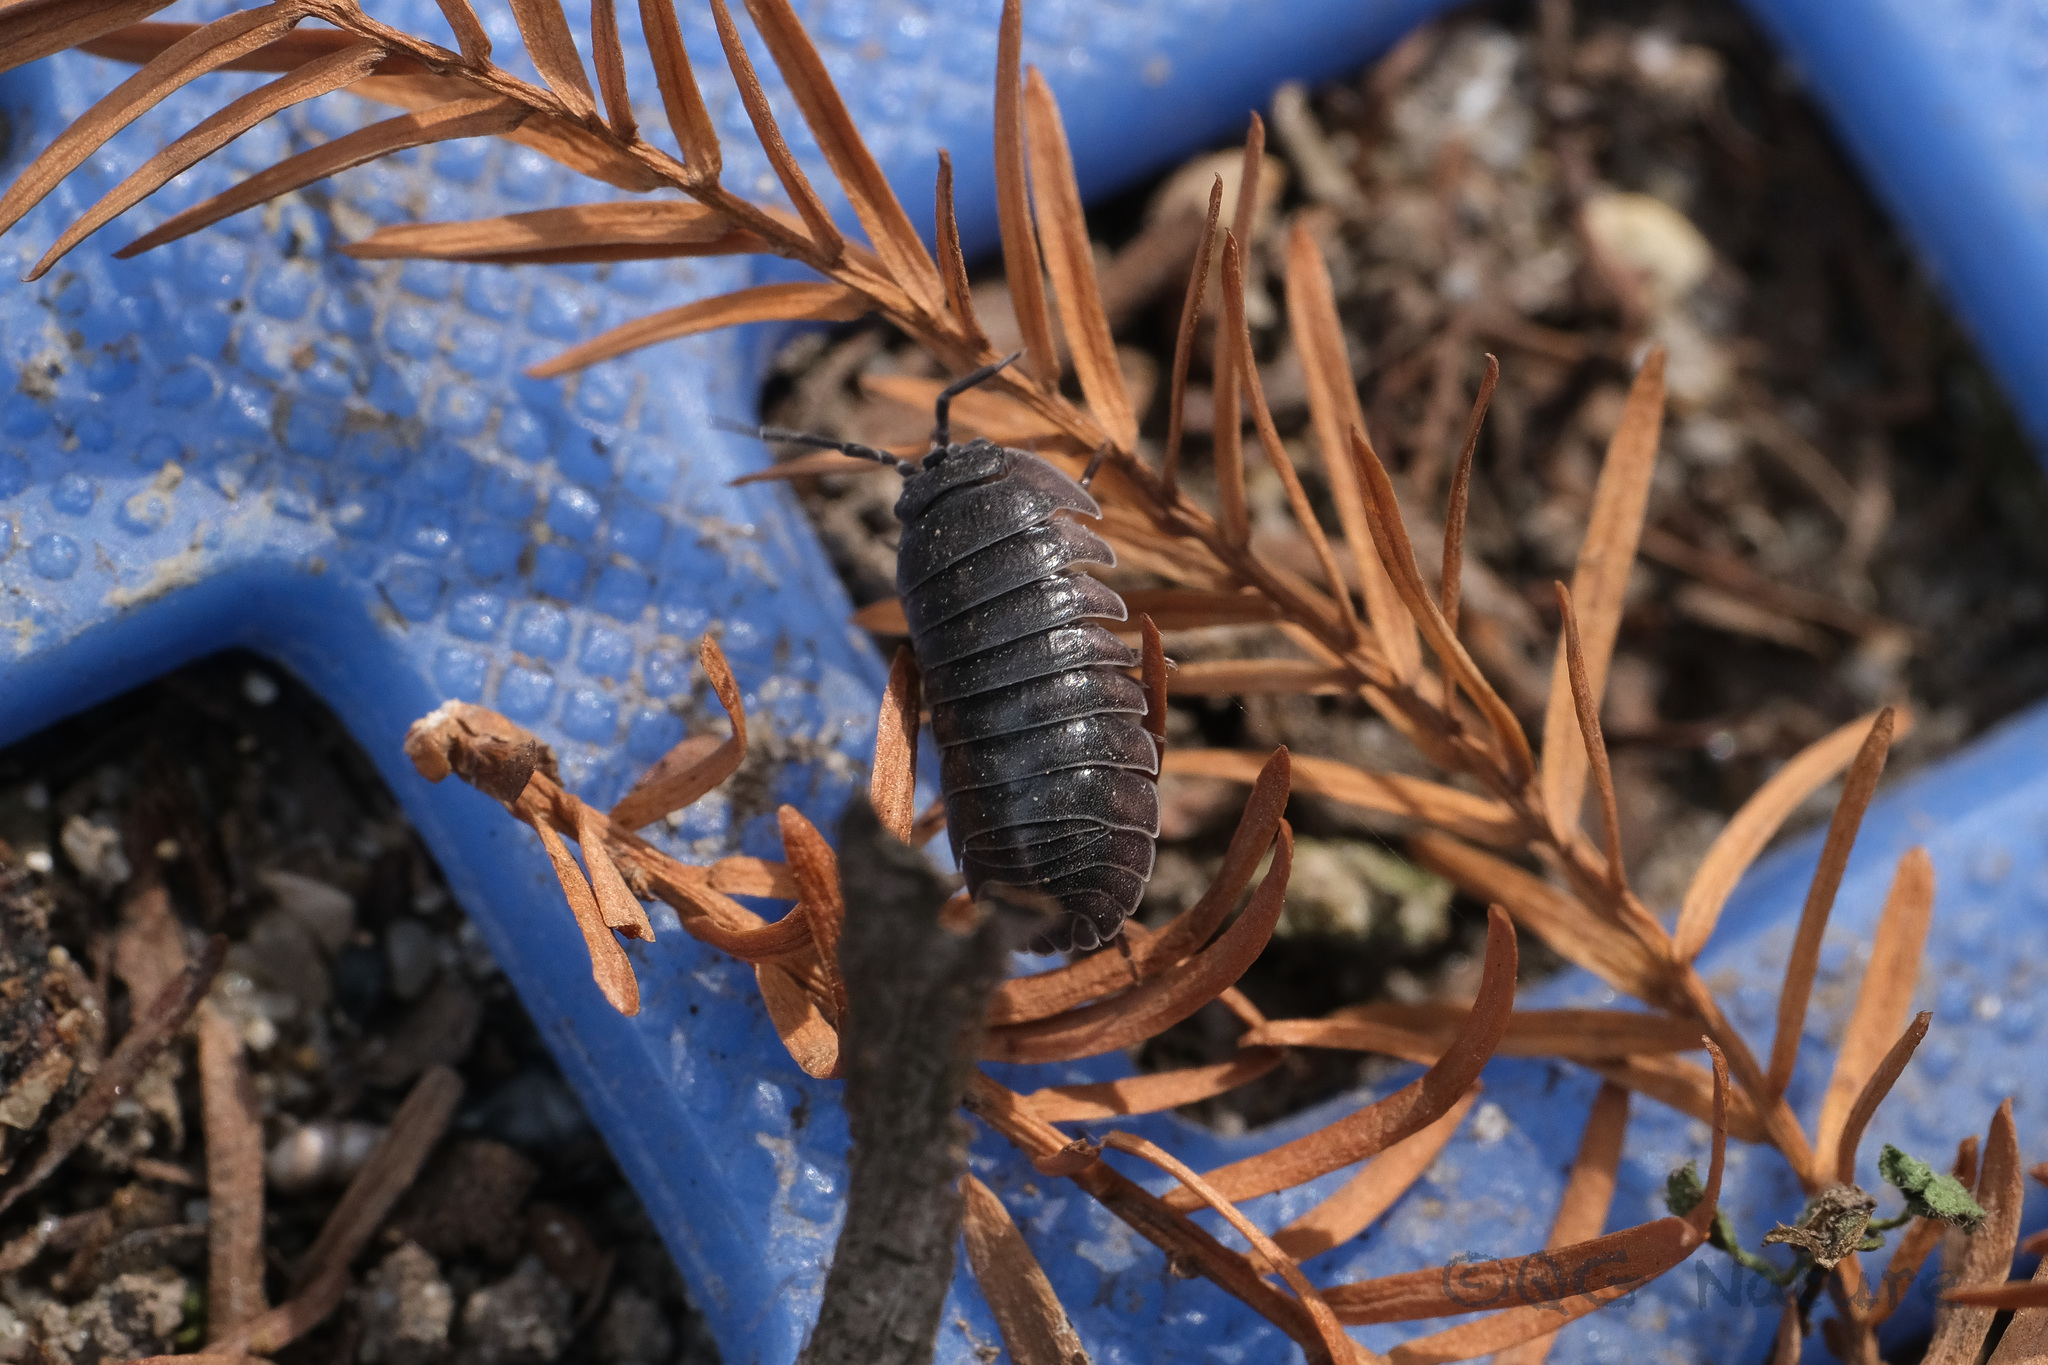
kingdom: Animalia
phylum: Arthropoda
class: Malacostraca
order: Isopoda
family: Armadillidiidae
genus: Armadillidium
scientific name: Armadillidium vulgare
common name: Common pill woodlouse
